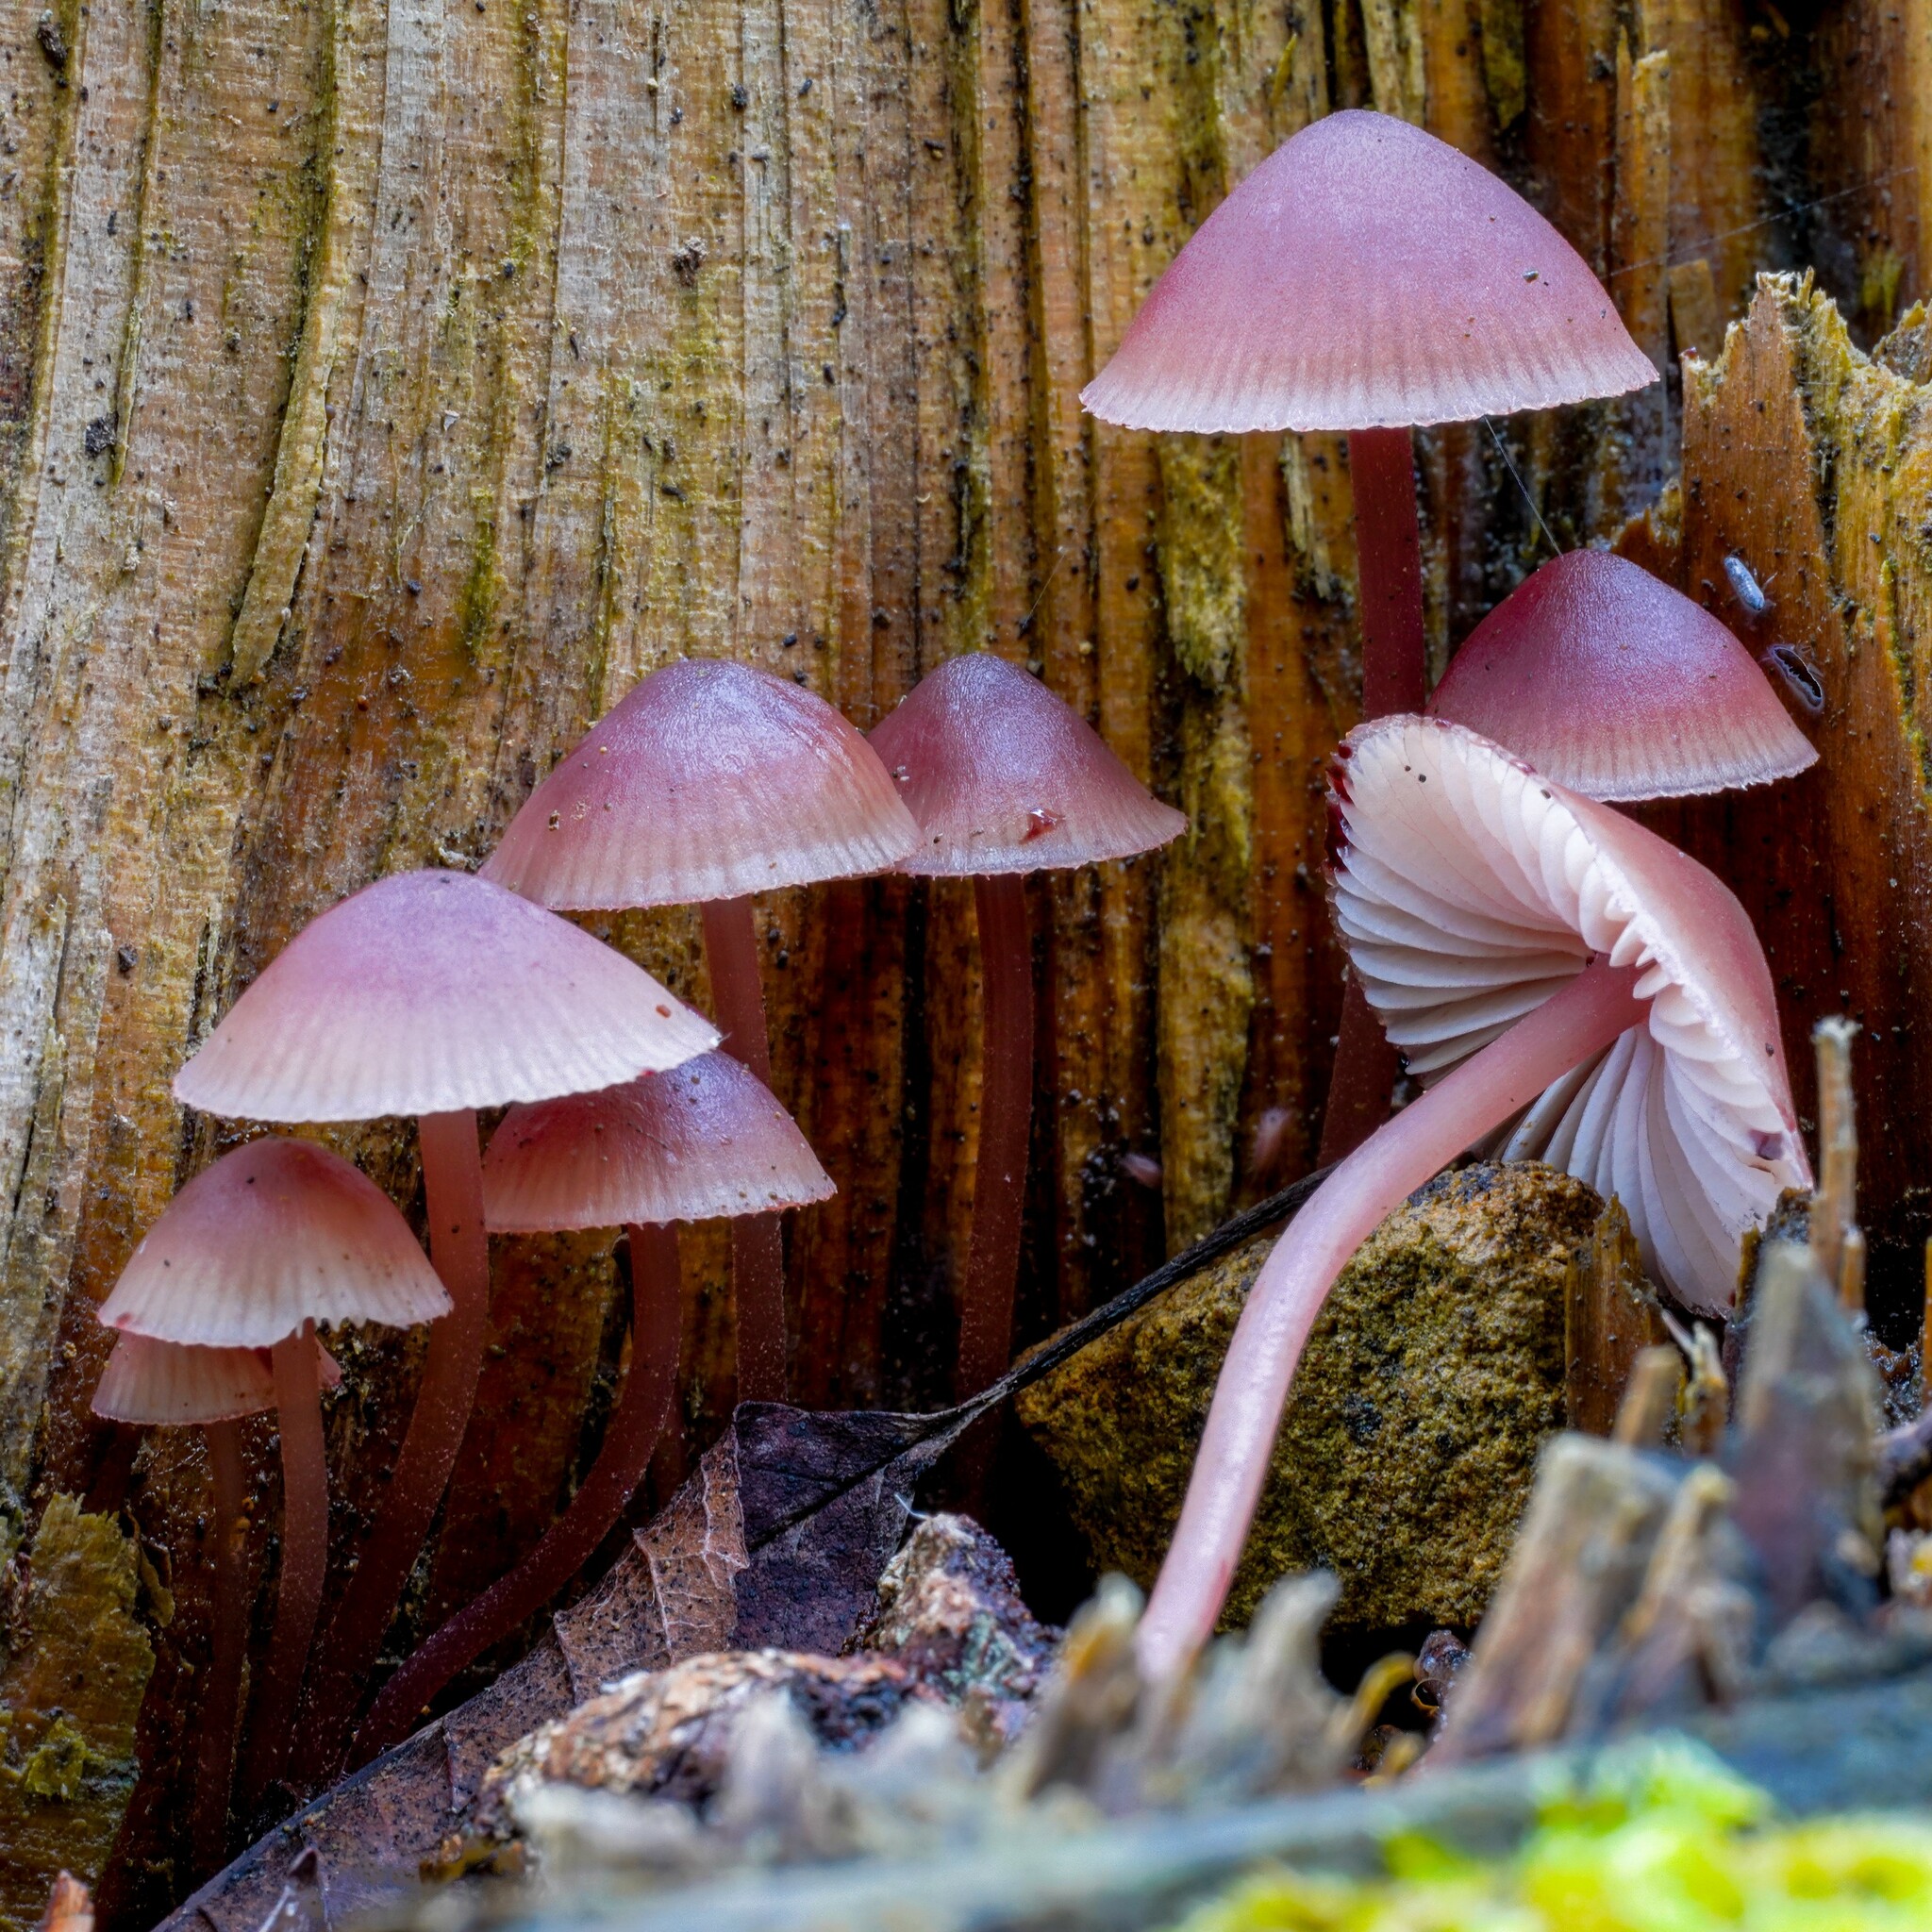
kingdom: Fungi
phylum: Basidiomycota
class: Agaricomycetes
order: Agaricales
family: Mycenaceae
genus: Mycena
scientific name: Mycena haematopus
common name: Burgundydrop bonnet
